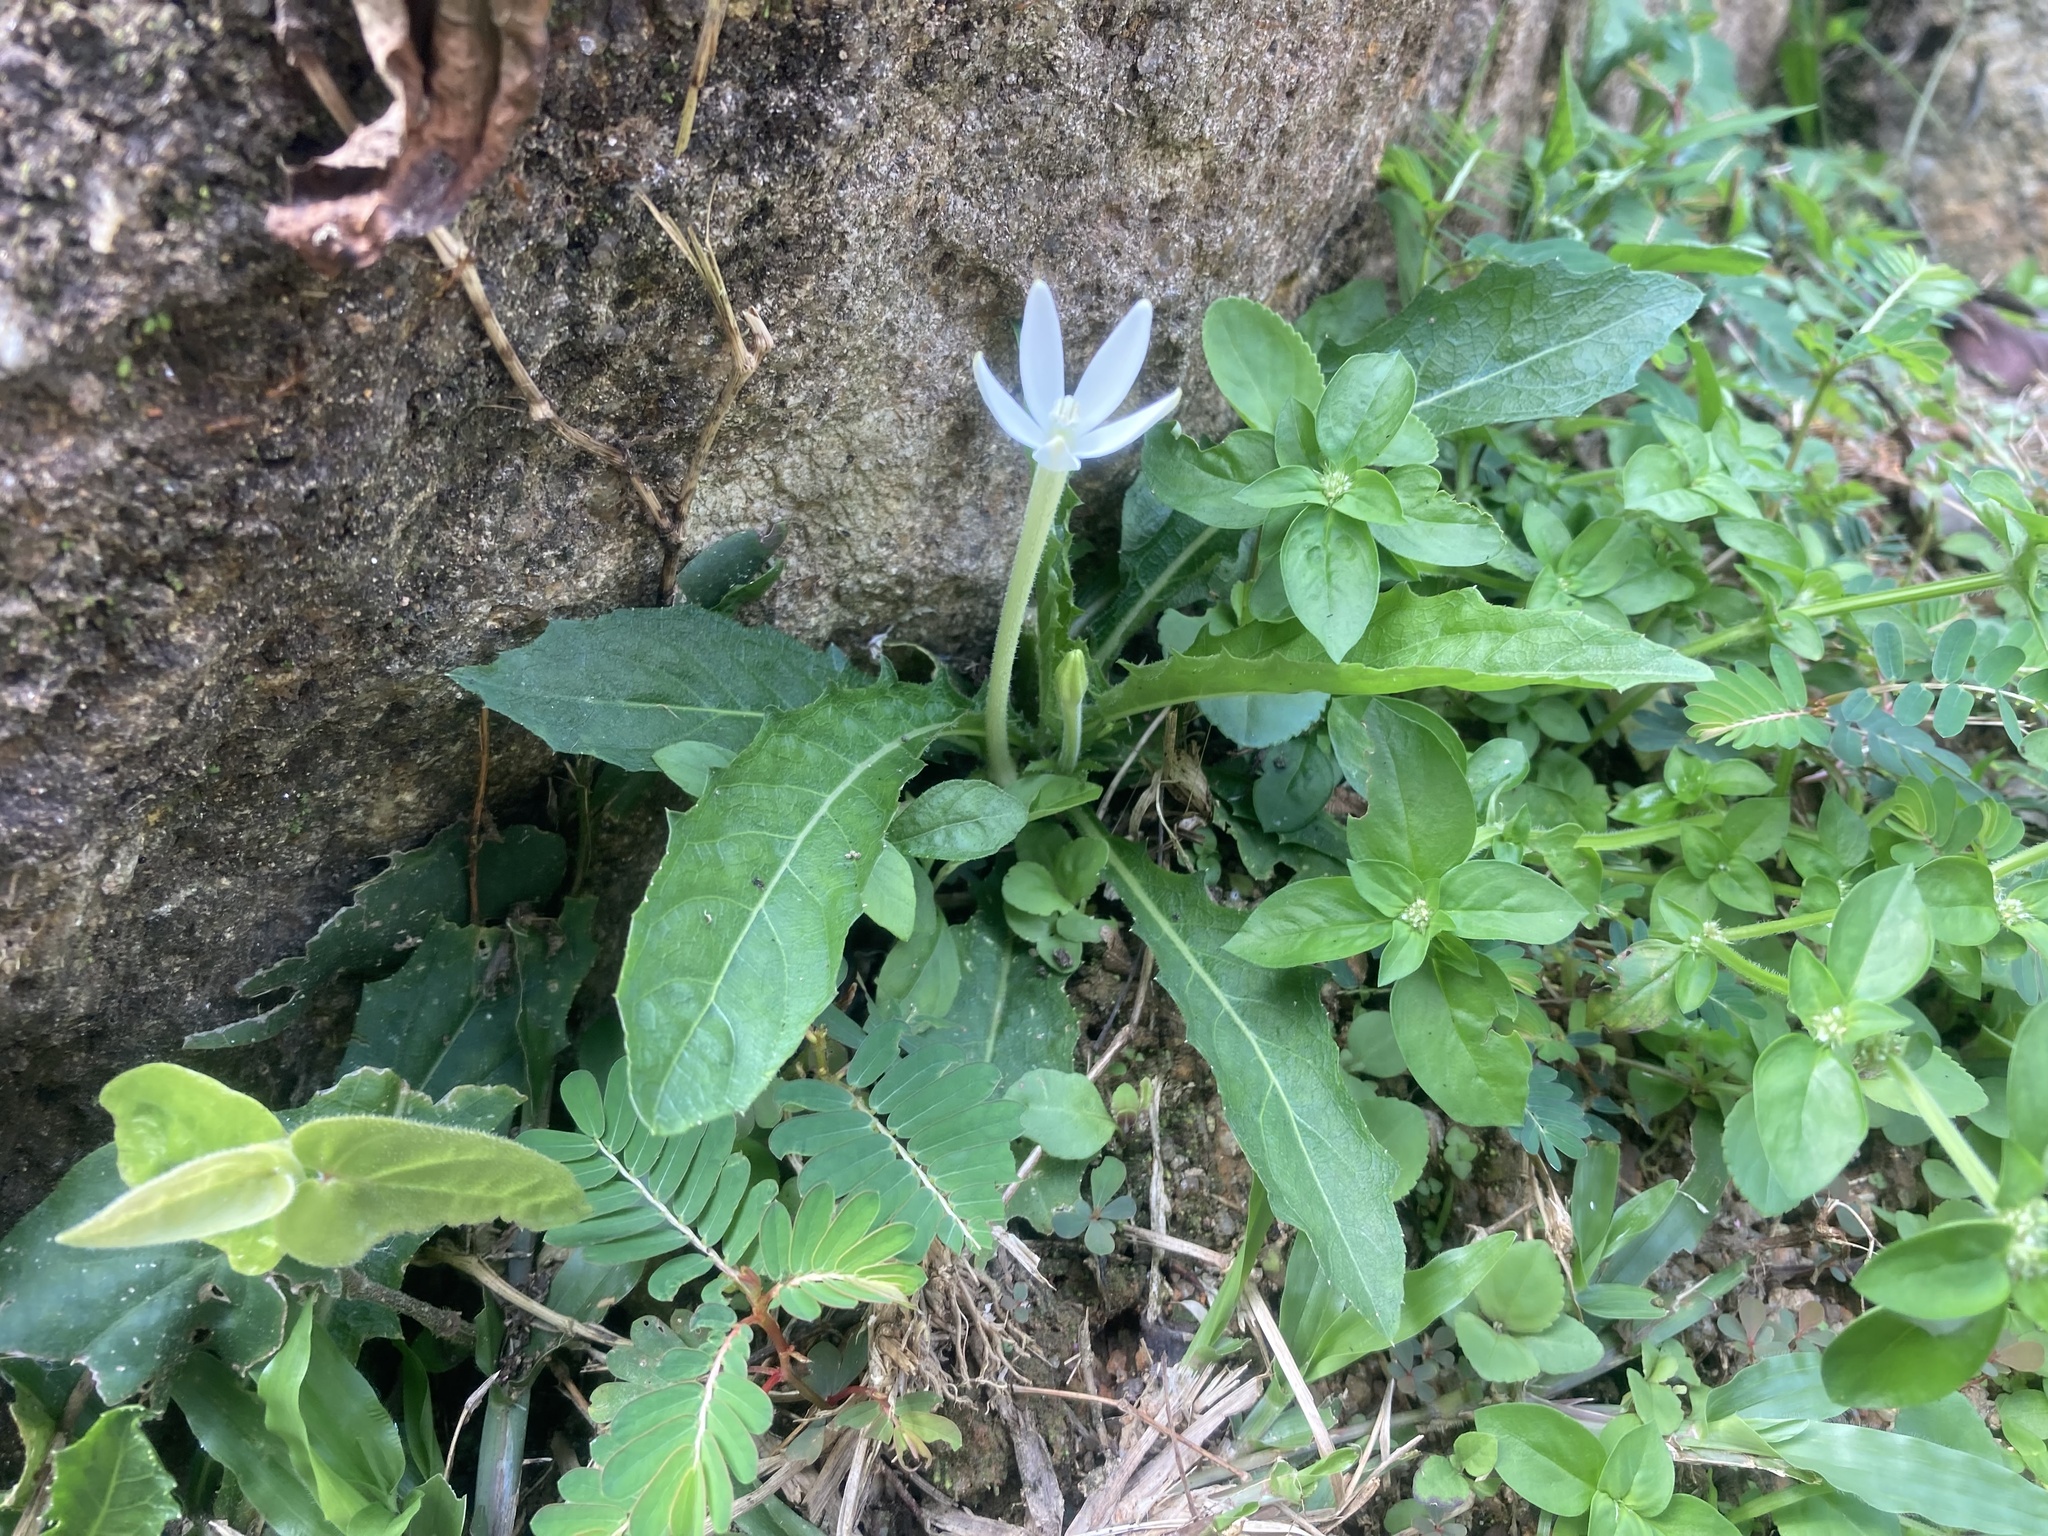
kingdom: Plantae
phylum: Tracheophyta
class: Magnoliopsida
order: Asterales
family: Campanulaceae
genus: Hippobroma
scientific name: Hippobroma longiflora
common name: Madamfate
